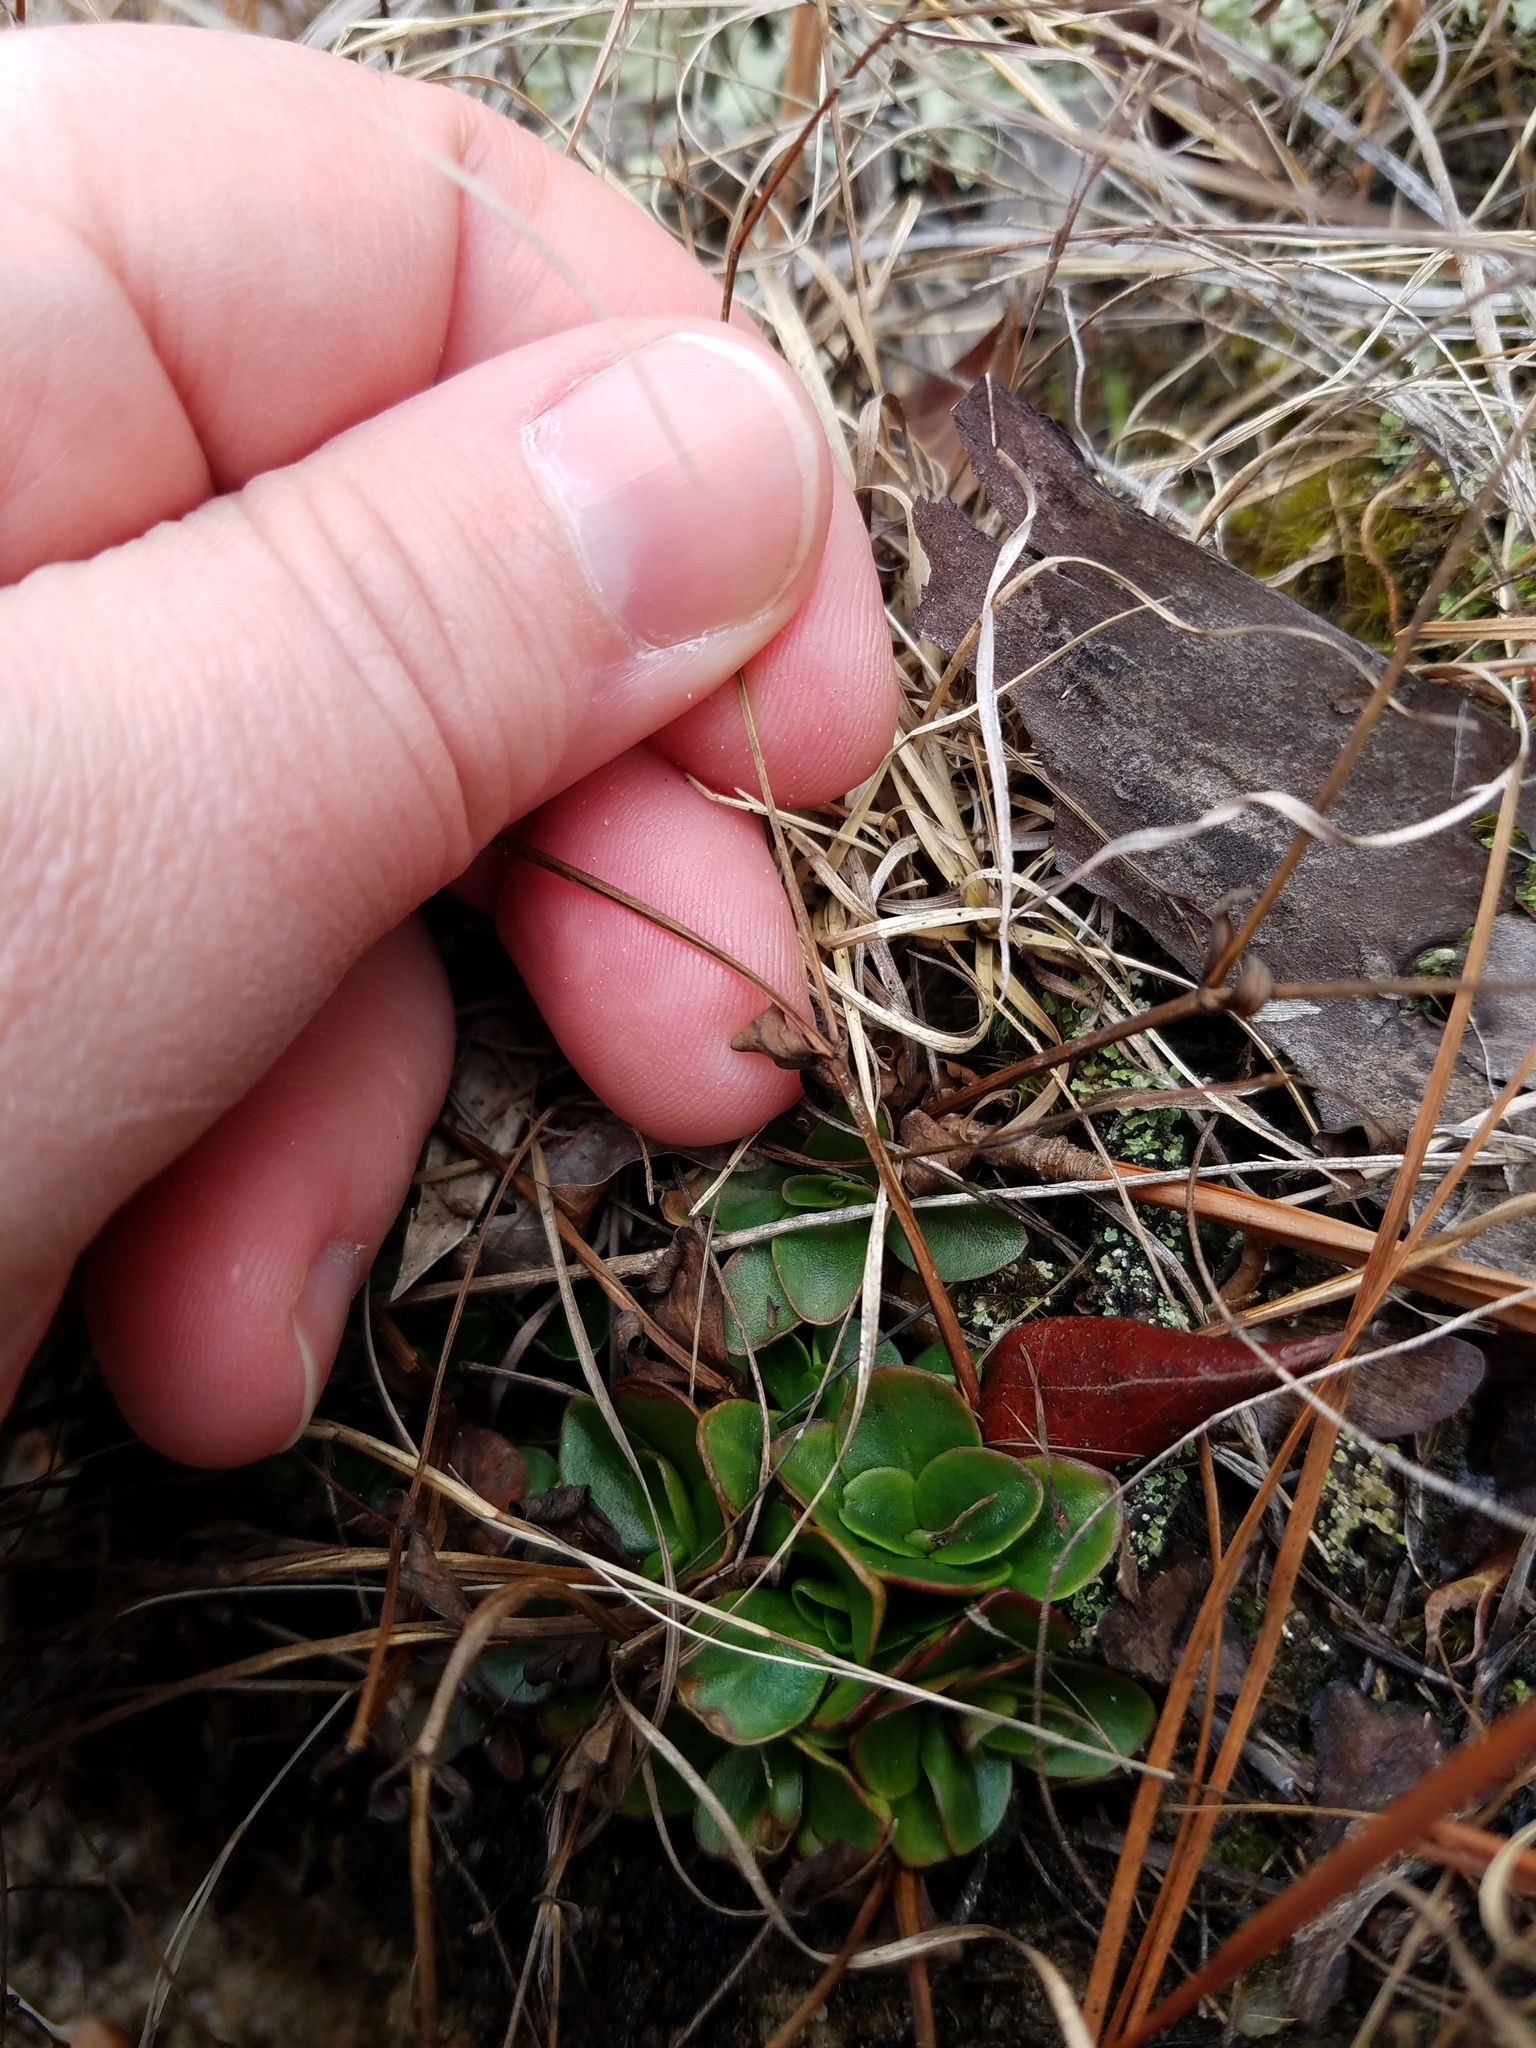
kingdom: Plantae
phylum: Tracheophyta
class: Magnoliopsida
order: Lamiales
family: Linderniaceae
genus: Lindernia
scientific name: Lindernia monticola
